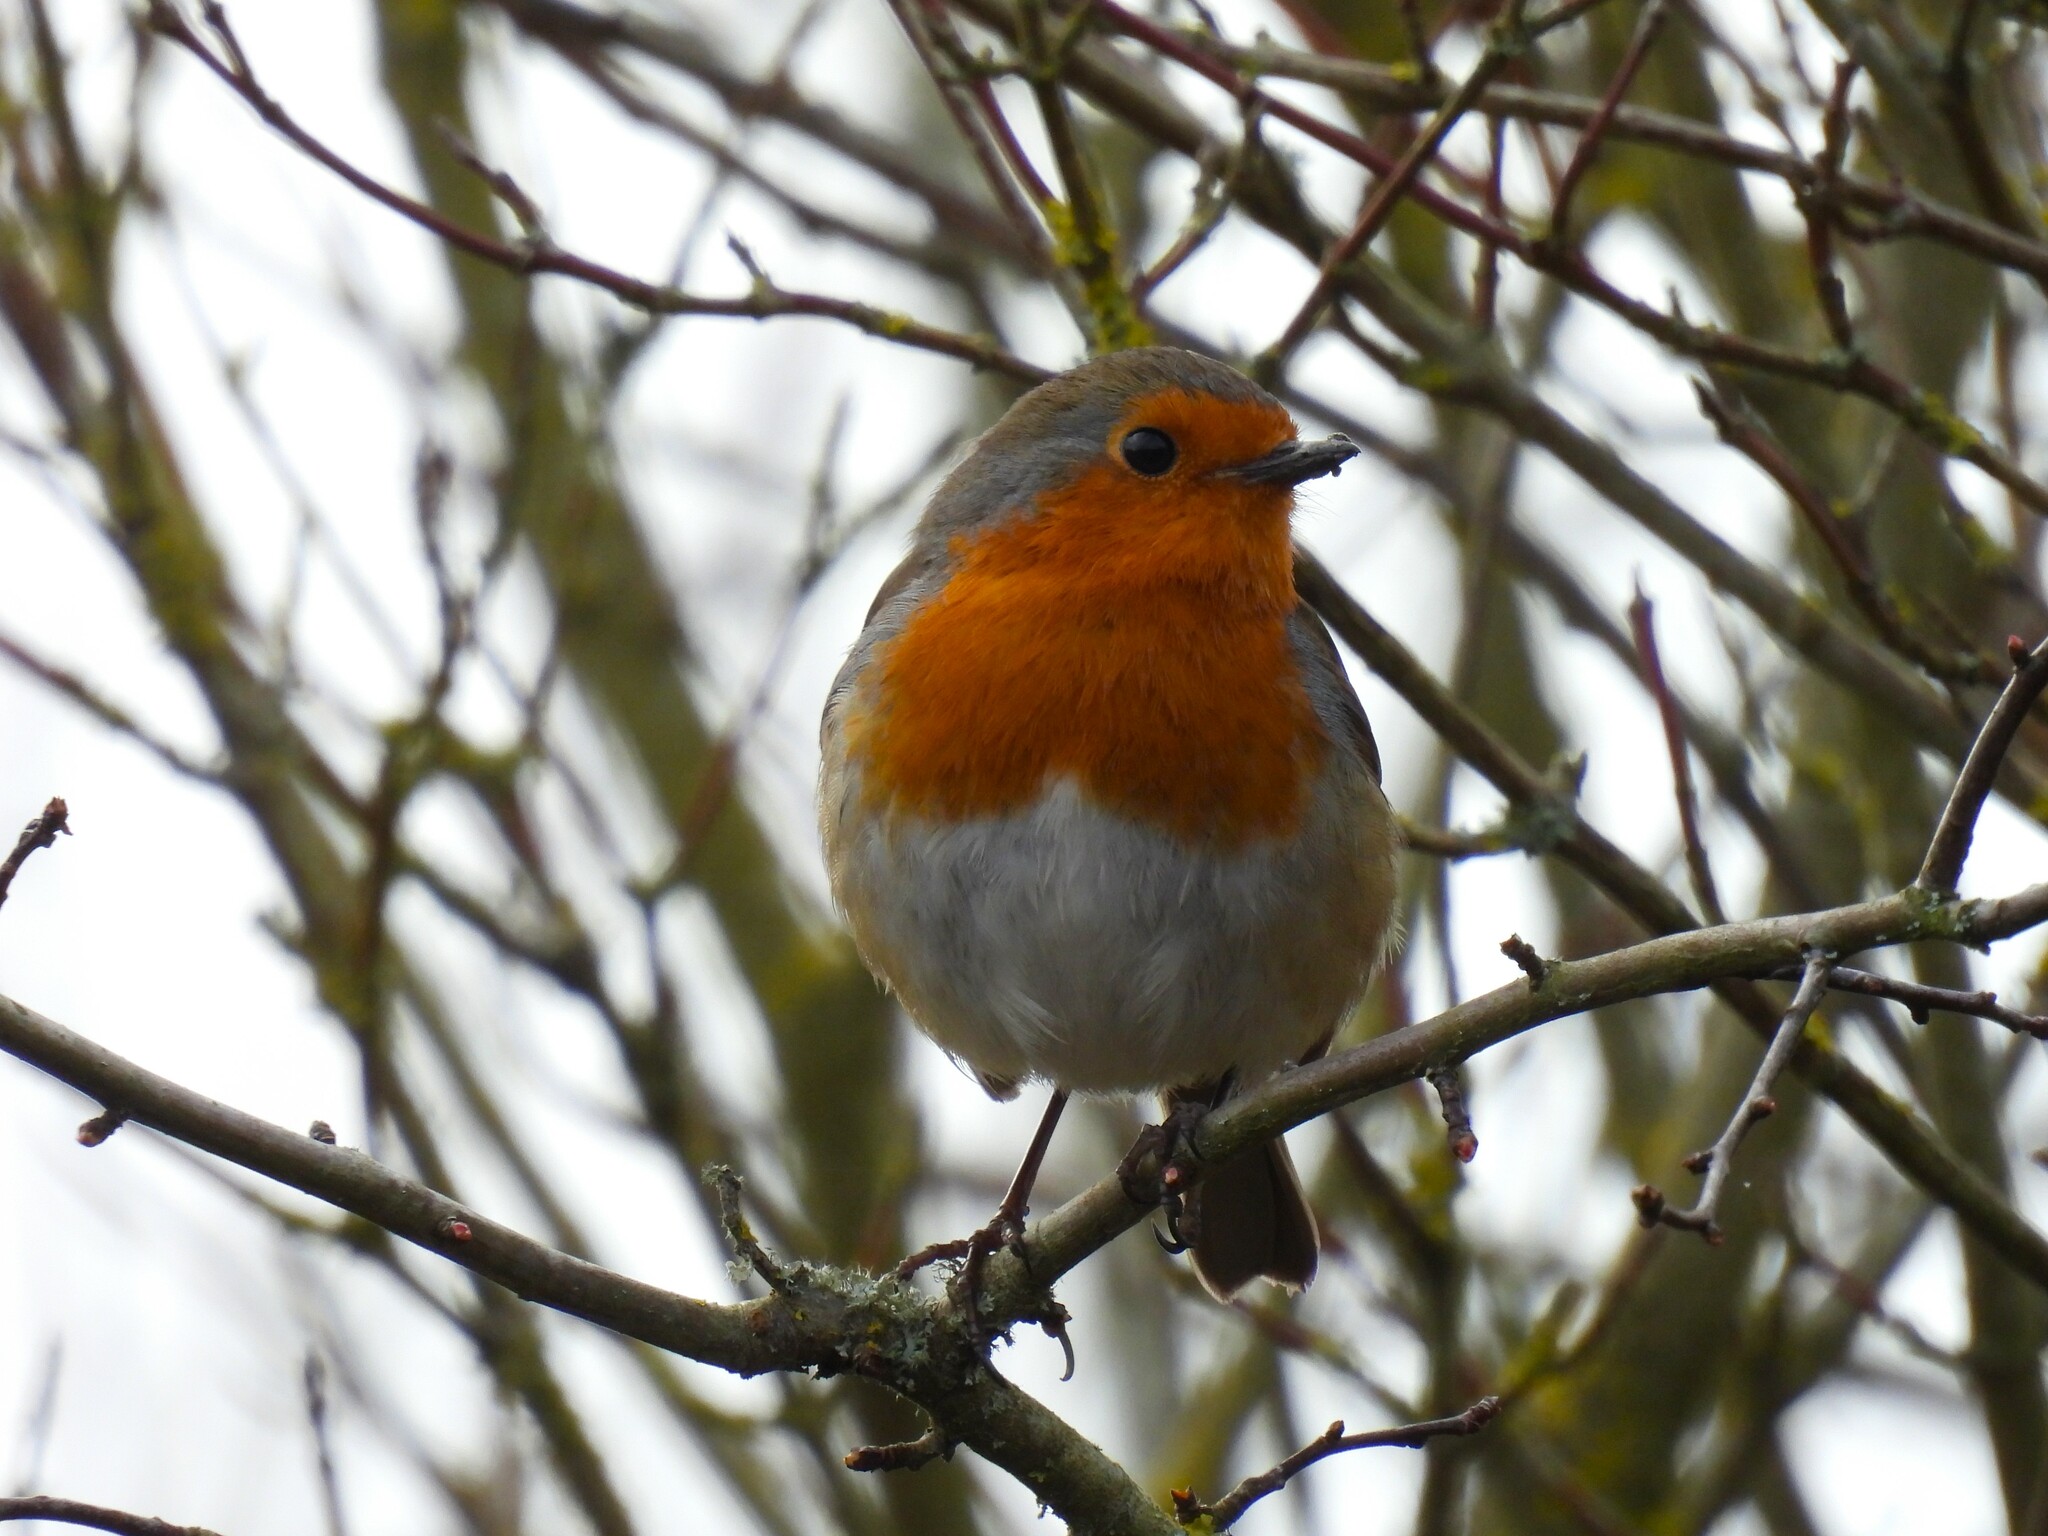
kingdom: Animalia
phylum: Chordata
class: Aves
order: Passeriformes
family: Muscicapidae
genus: Erithacus
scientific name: Erithacus rubecula
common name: European robin
